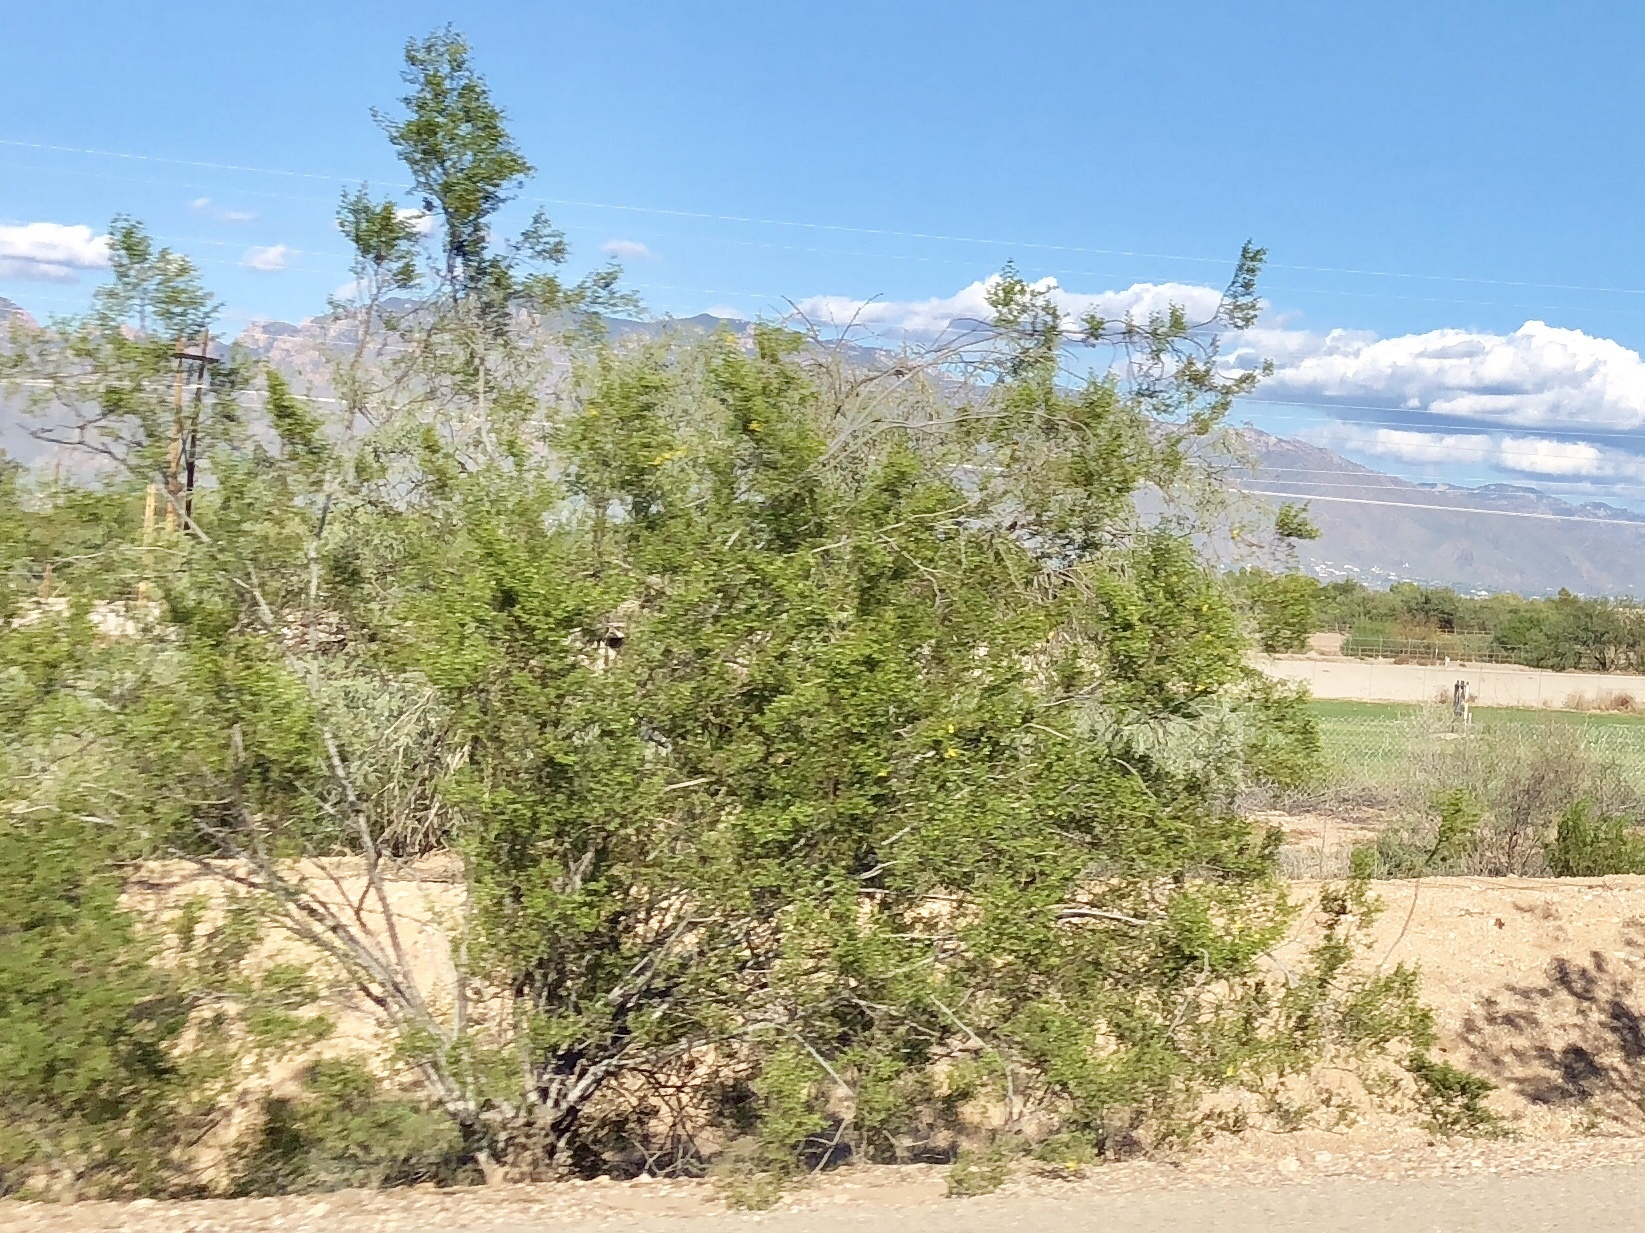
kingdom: Plantae
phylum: Tracheophyta
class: Magnoliopsida
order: Zygophyllales
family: Zygophyllaceae
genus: Larrea
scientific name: Larrea tridentata
